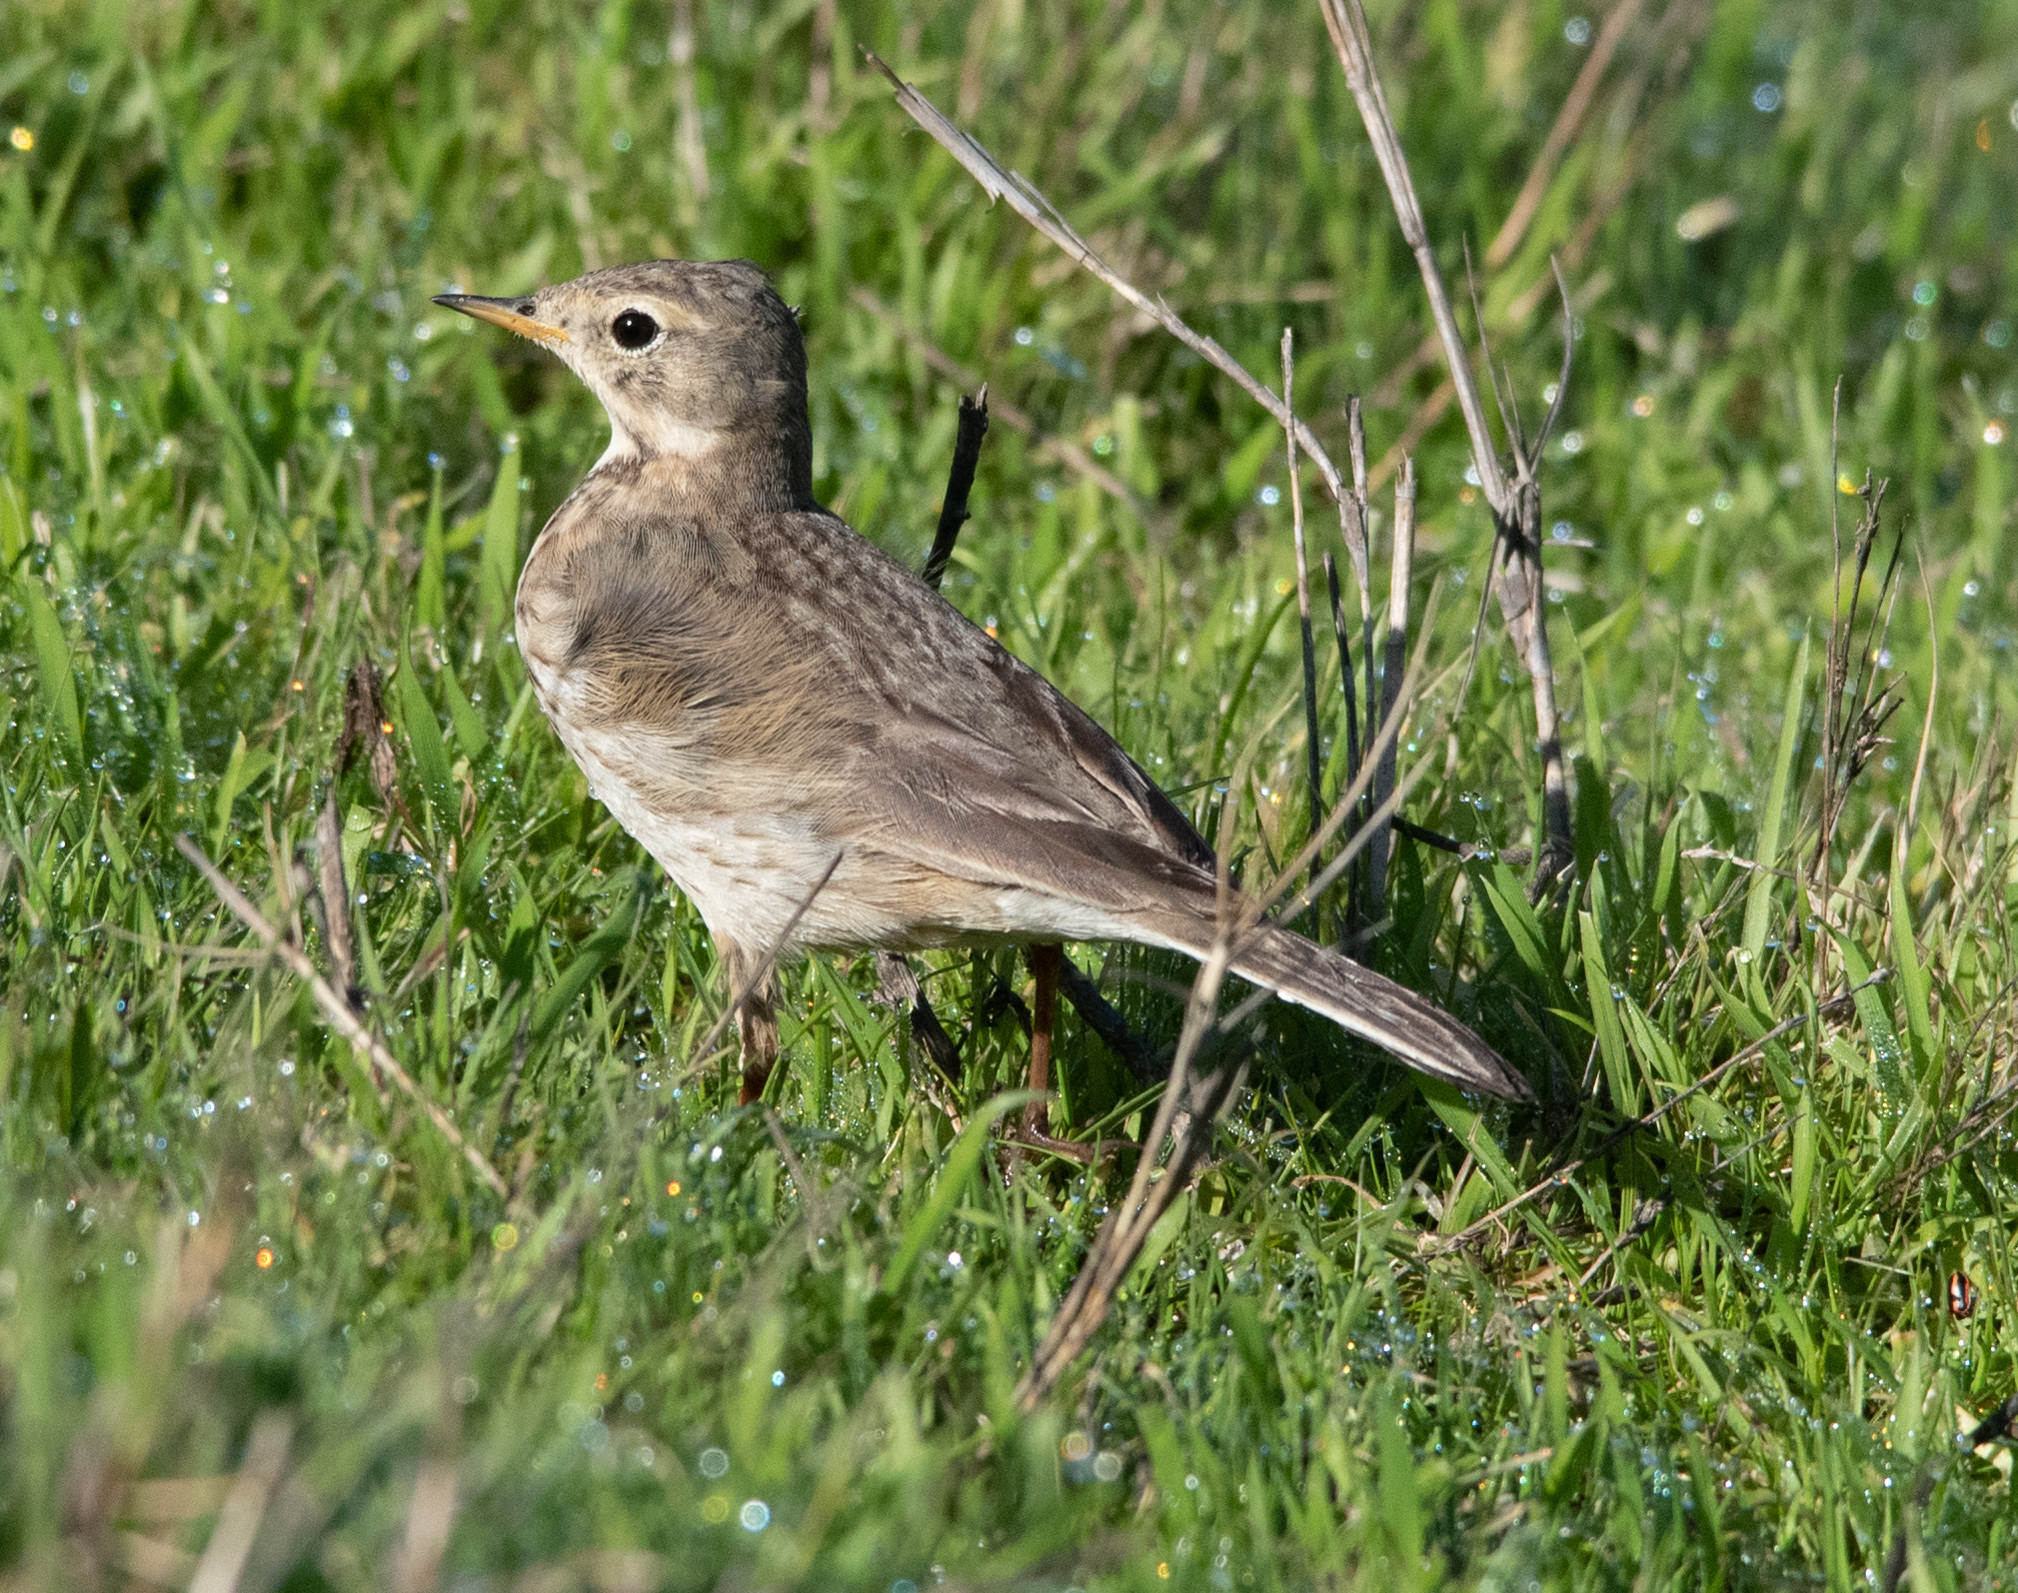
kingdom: Animalia
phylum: Chordata
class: Aves
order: Passeriformes
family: Motacillidae
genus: Anthus
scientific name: Anthus rubescens
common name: Buff-bellied pipit
